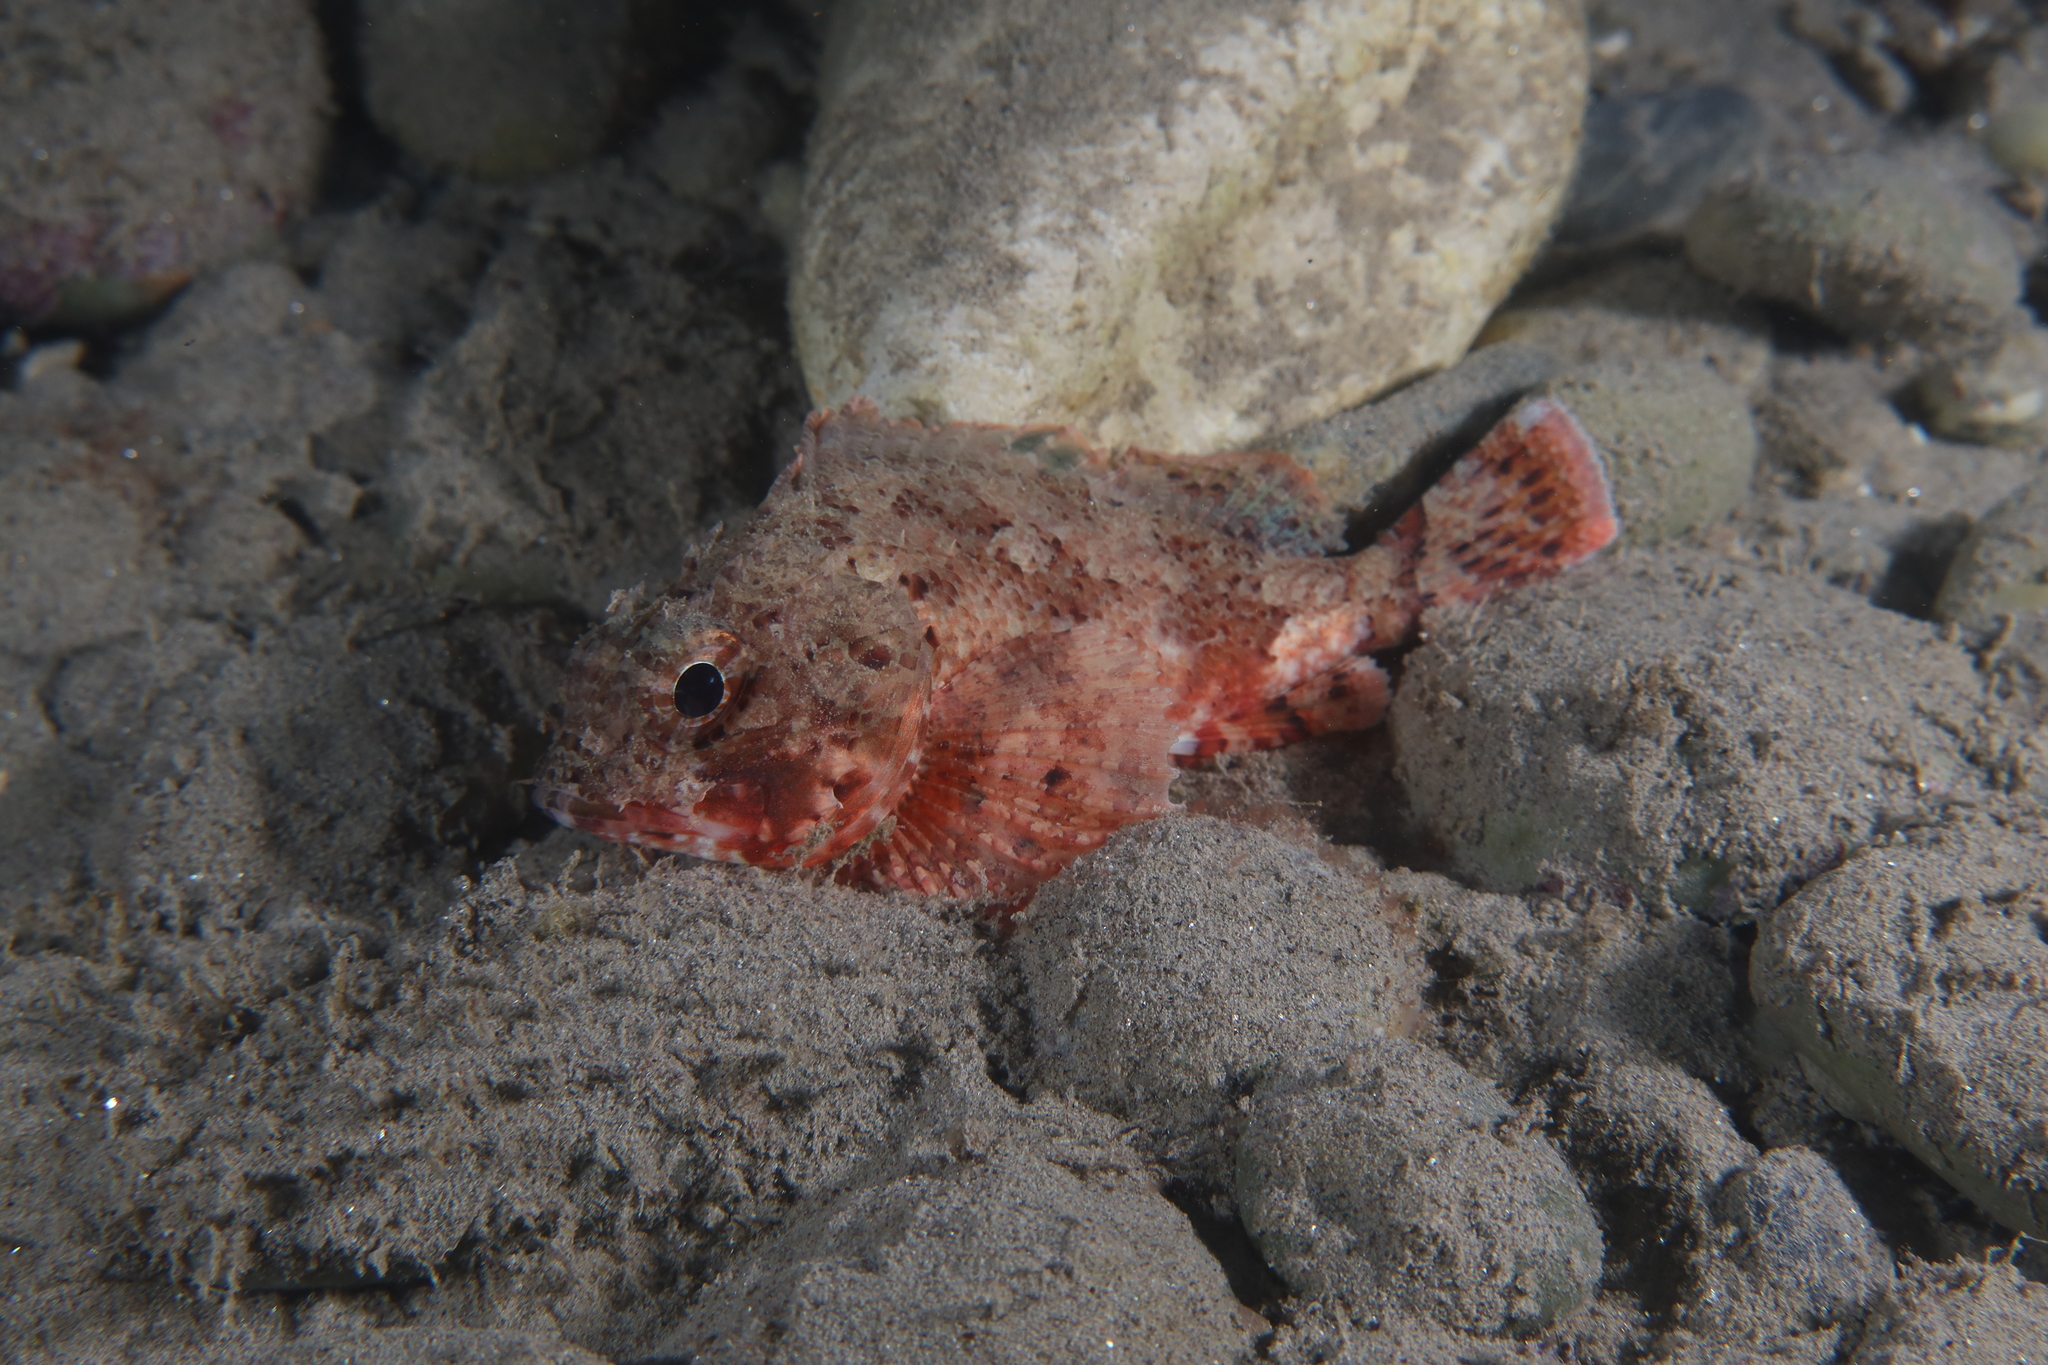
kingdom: Animalia
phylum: Chordata
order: Scorpaeniformes
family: Scorpaenidae
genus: Scorpaena
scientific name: Scorpaena notata
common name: Small red scorpionfish
